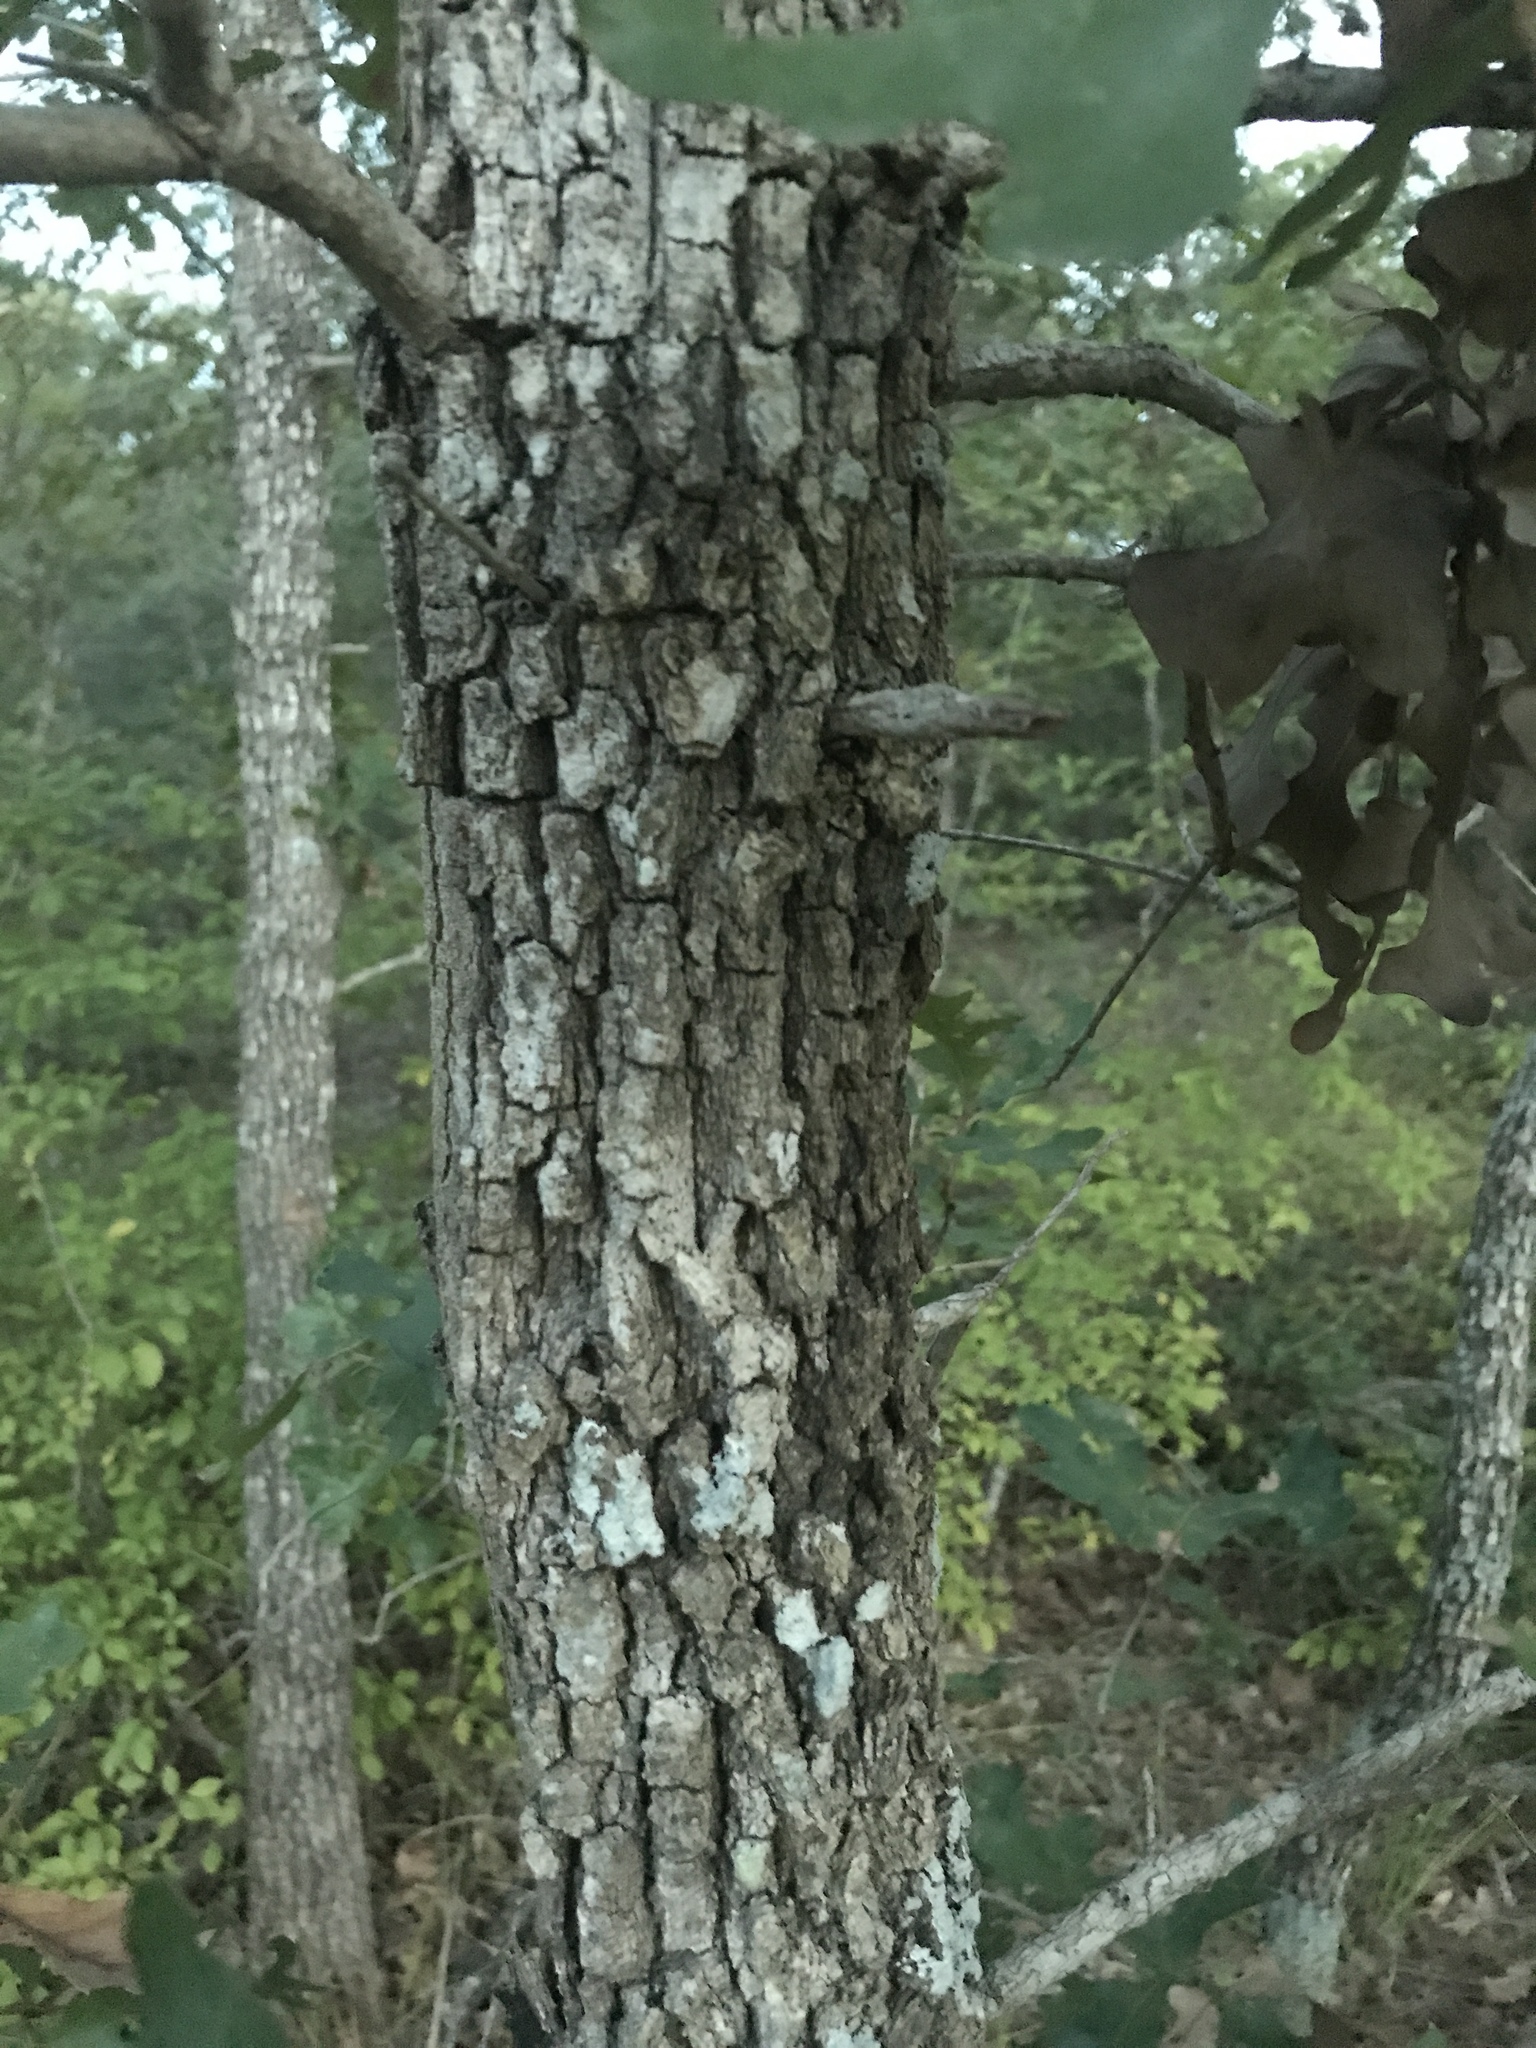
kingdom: Plantae
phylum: Tracheophyta
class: Magnoliopsida
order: Fagales
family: Fagaceae
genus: Quercus
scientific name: Quercus stellata
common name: Post oak
